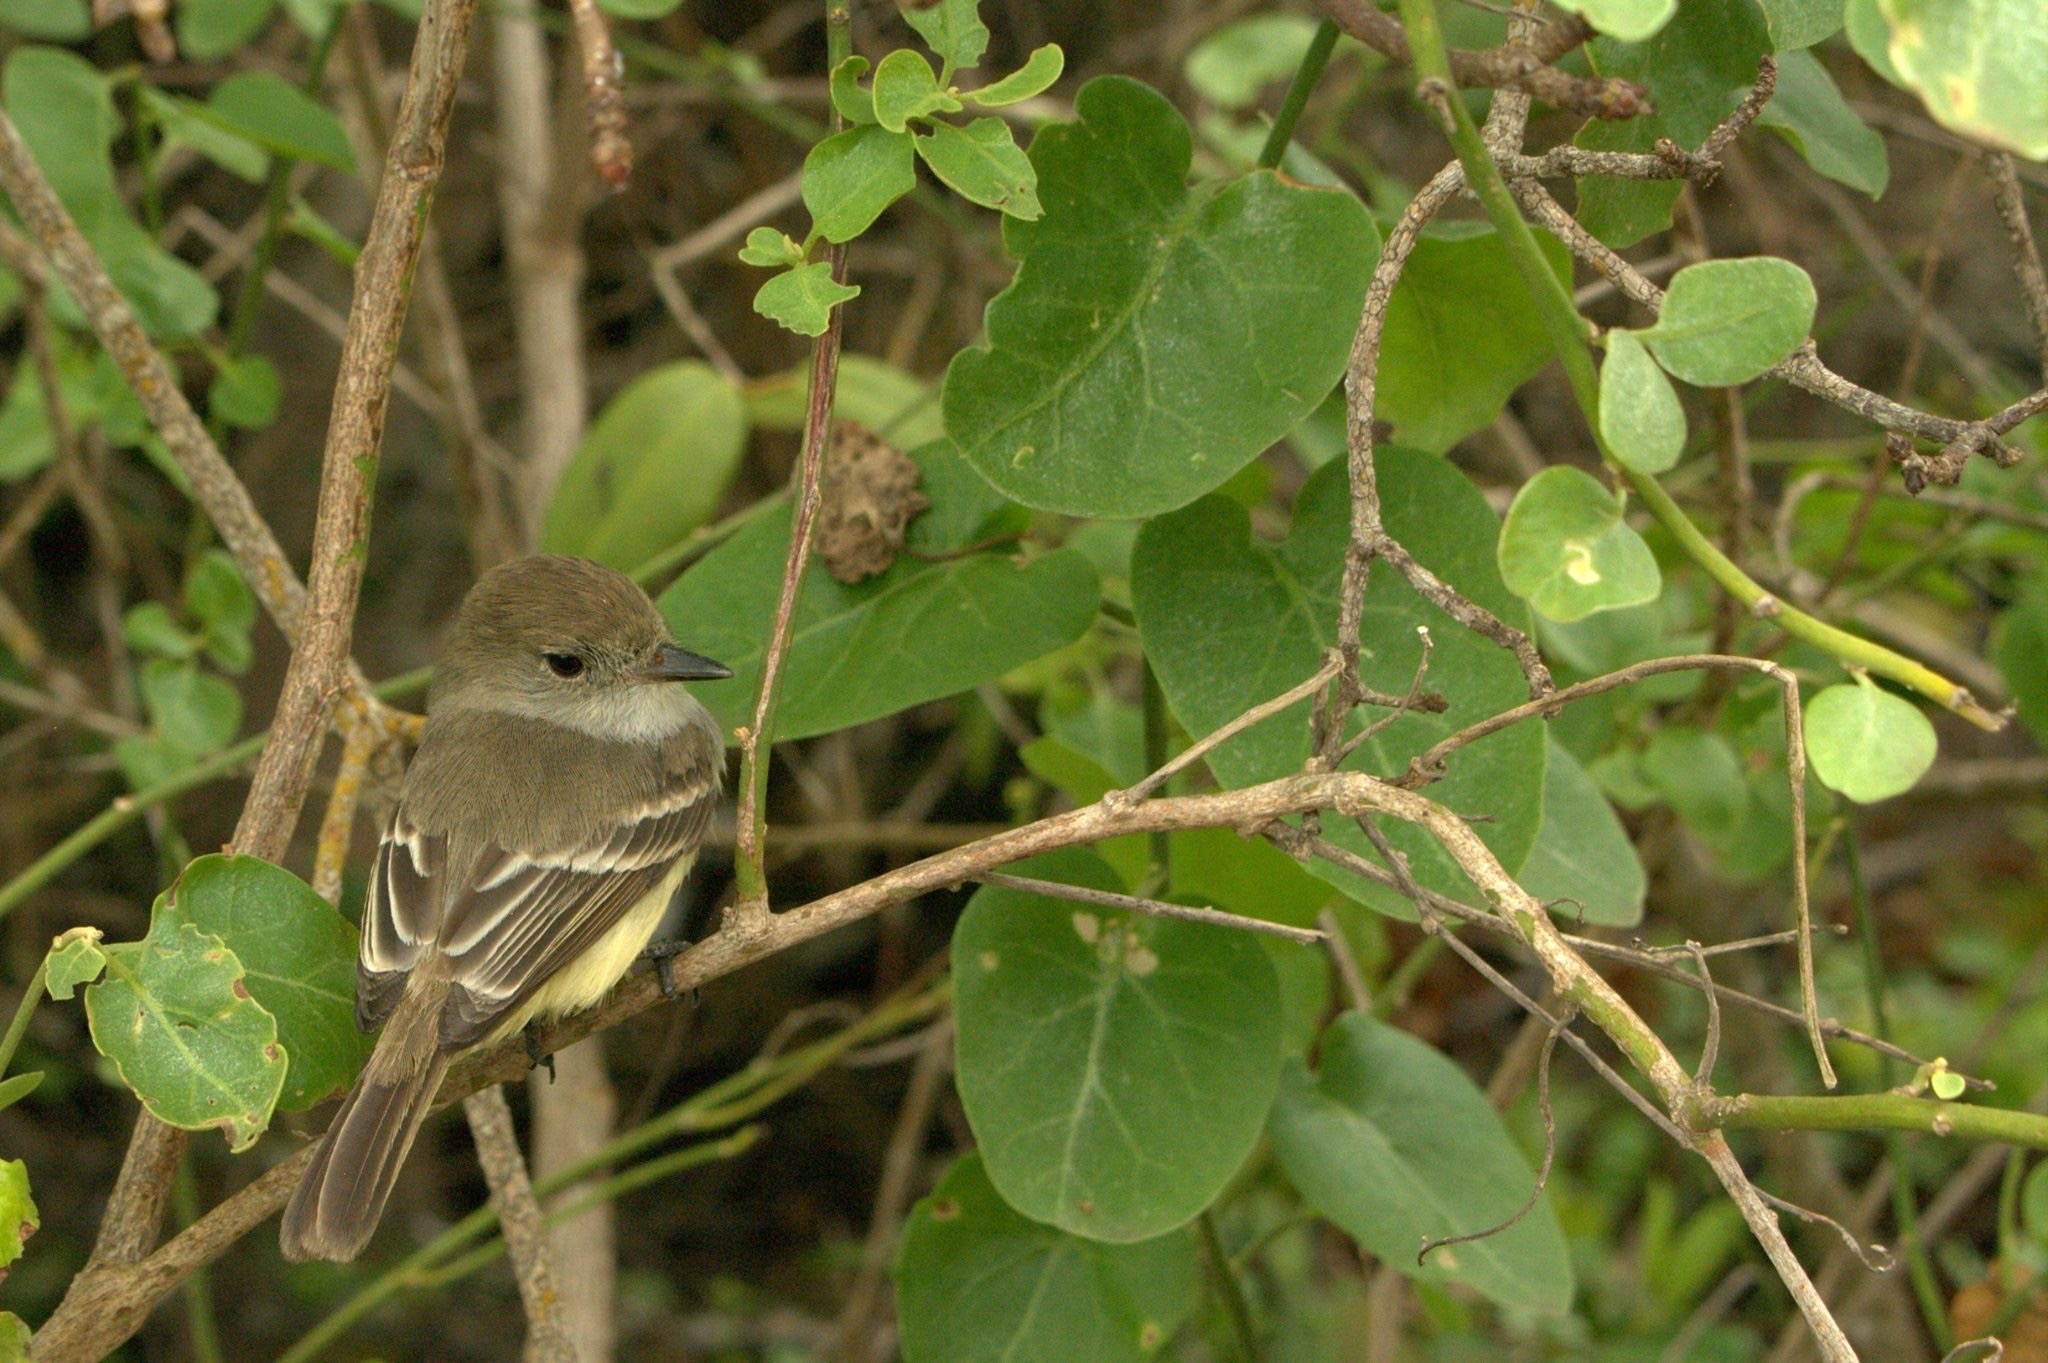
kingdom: Animalia
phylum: Chordata
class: Aves
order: Passeriformes
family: Tyrannidae
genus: Myiarchus
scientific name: Myiarchus magnirostris
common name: Galapagos flycatcher
